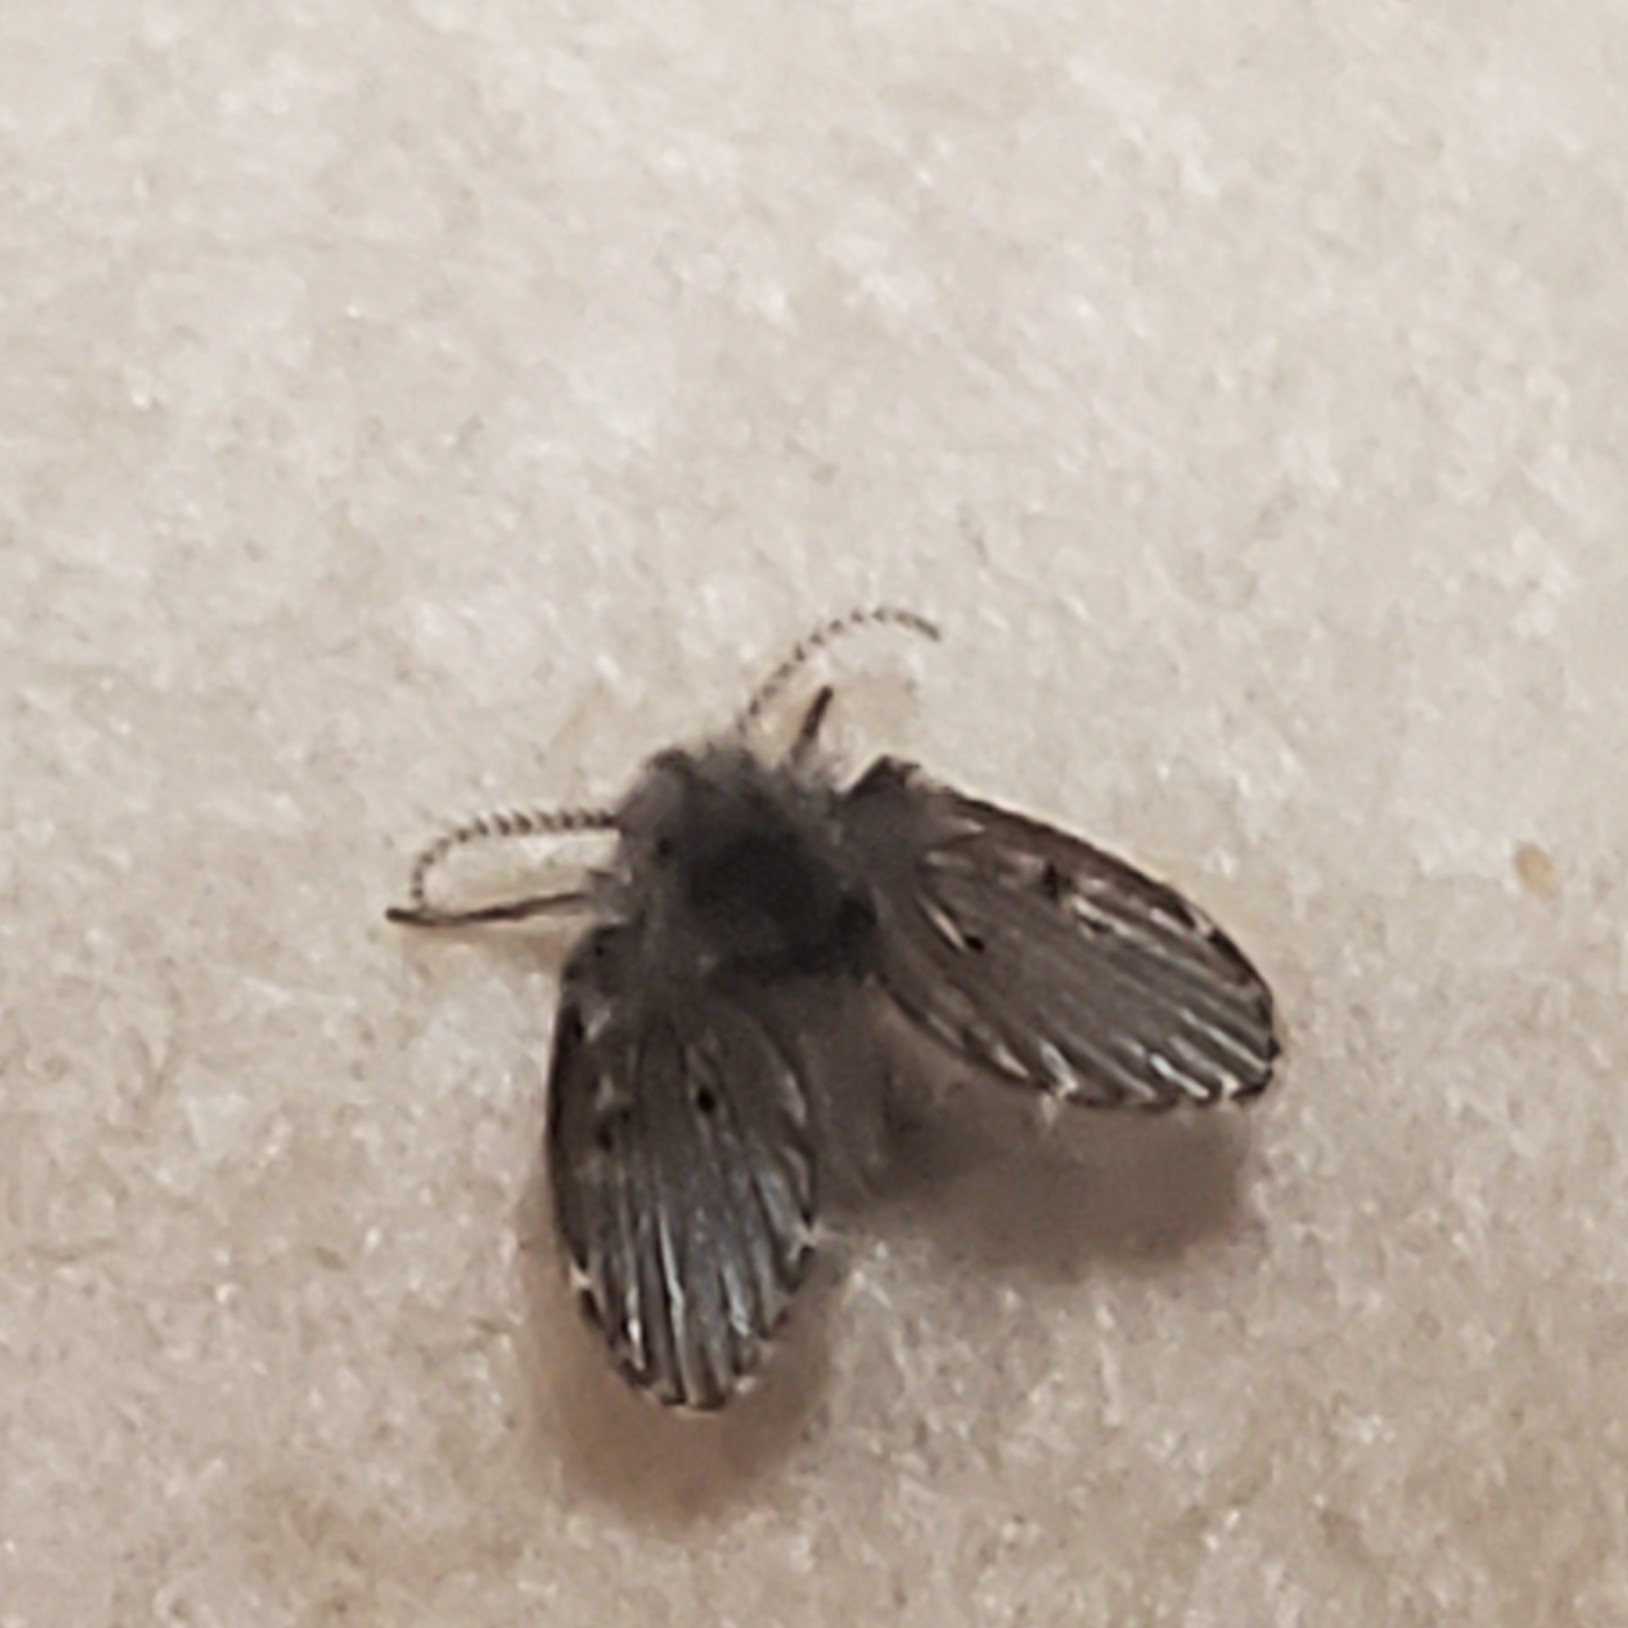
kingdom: Animalia
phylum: Arthropoda
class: Insecta
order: Diptera
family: Psychodidae
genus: Clogmia
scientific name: Clogmia albipunctatus
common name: White-spotted moth fly
